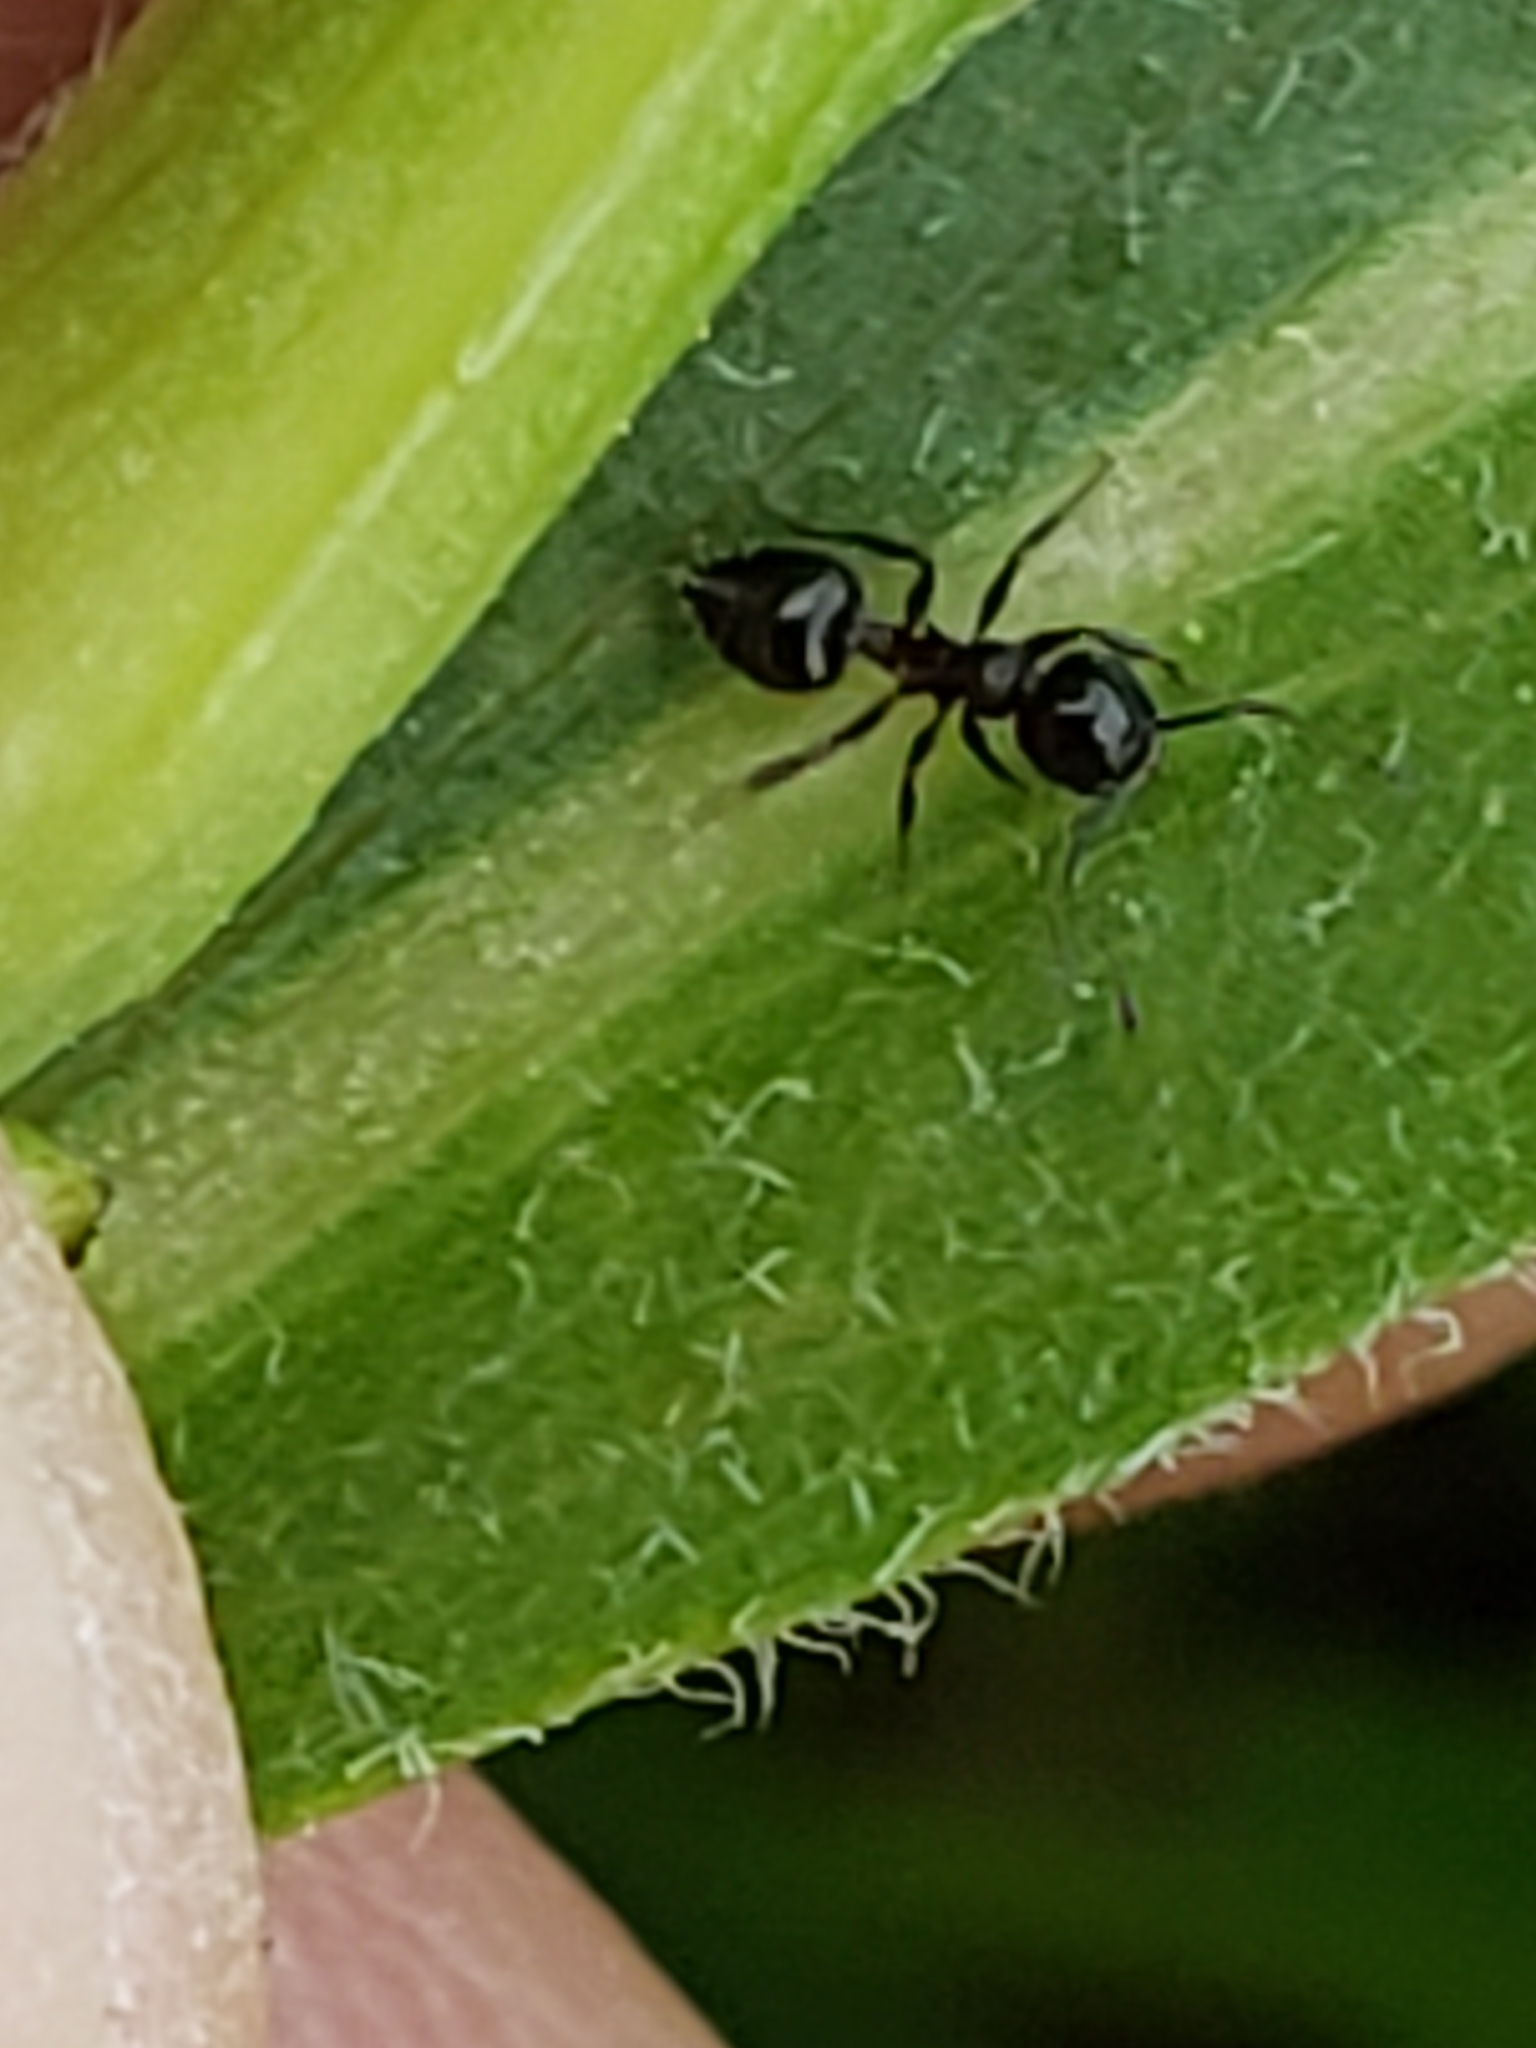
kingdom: Animalia
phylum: Arthropoda
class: Insecta
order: Hymenoptera
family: Formicidae
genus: Crematogaster
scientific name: Crematogaster
